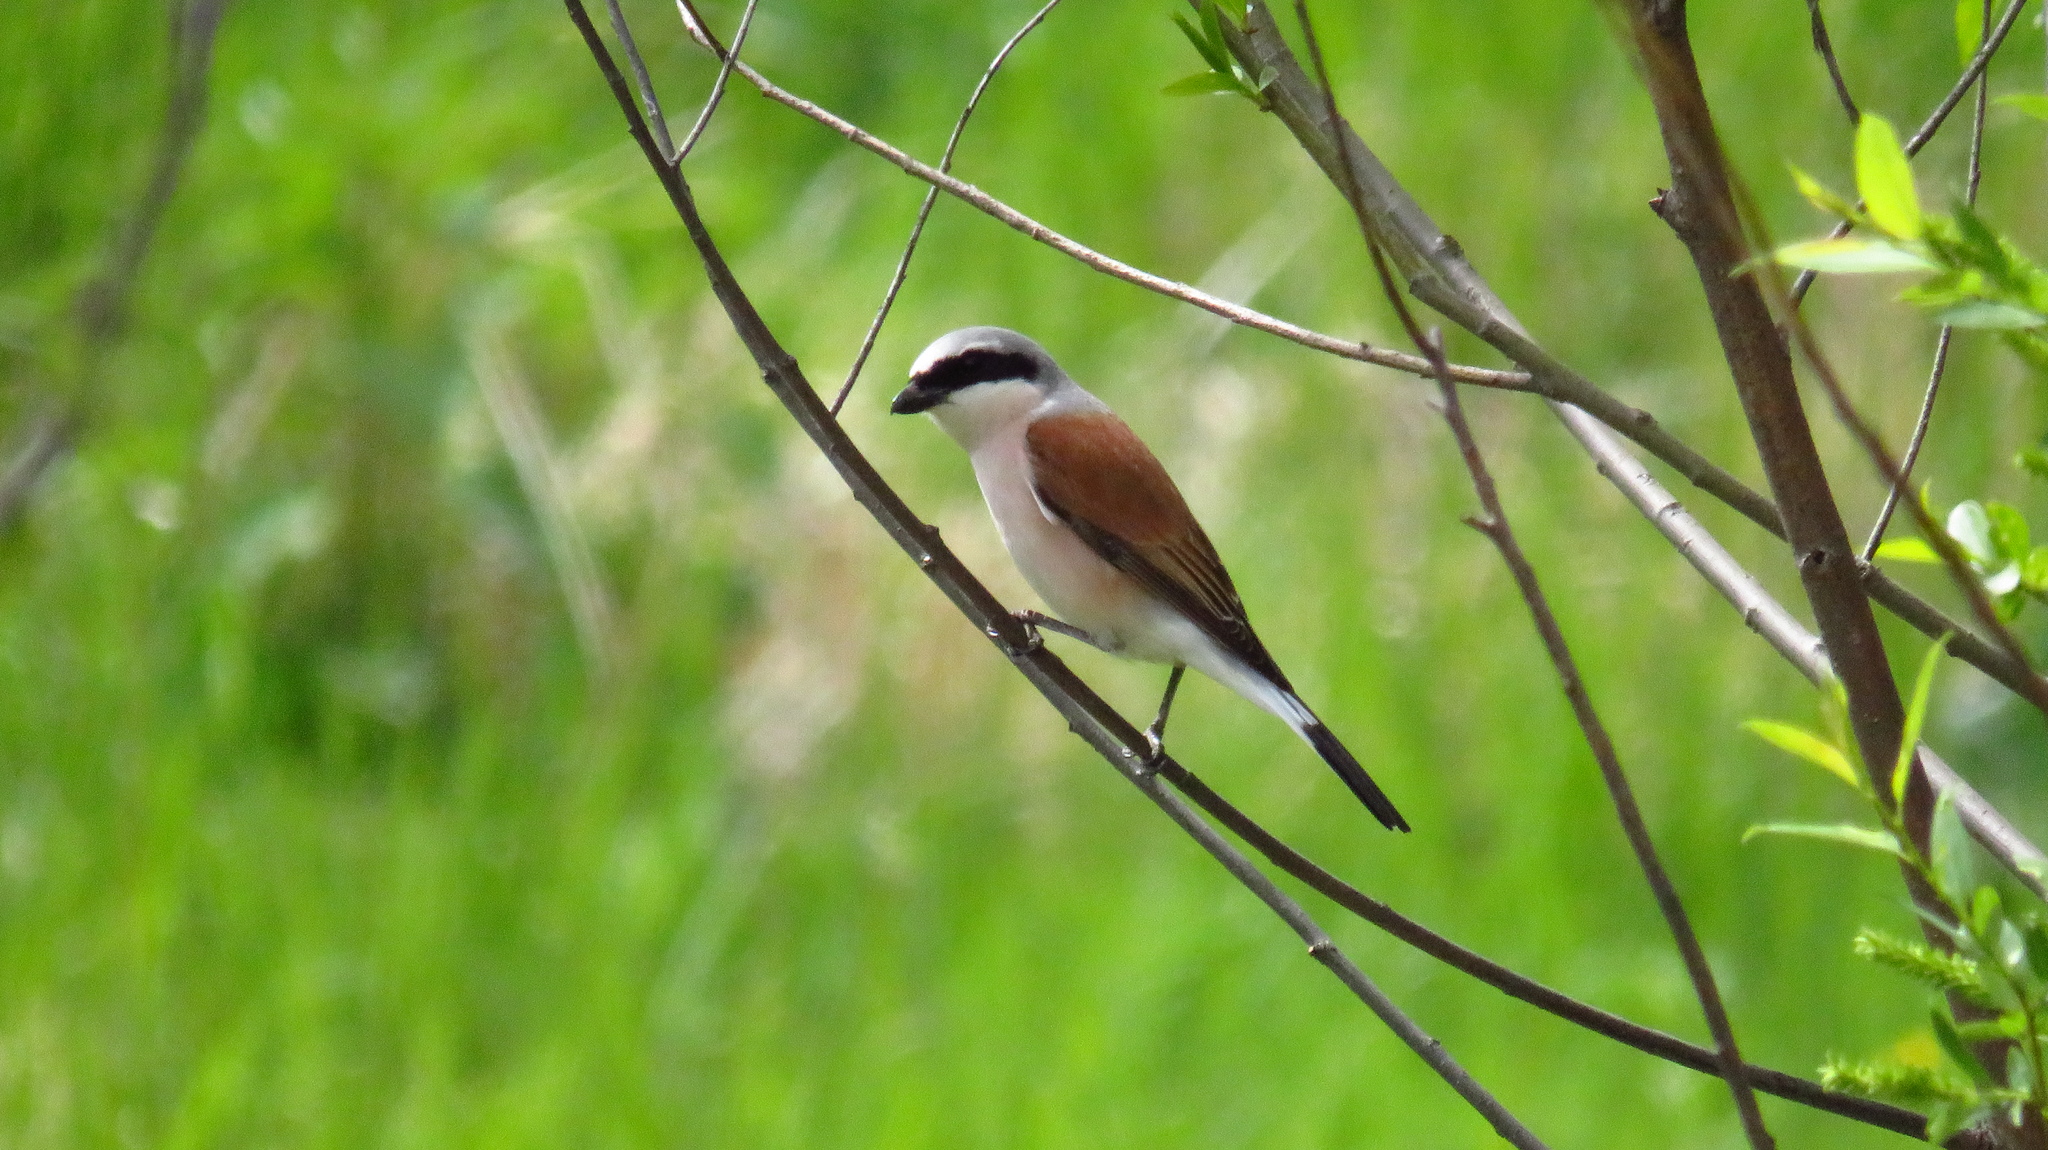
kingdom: Animalia
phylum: Chordata
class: Aves
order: Passeriformes
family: Laniidae
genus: Lanius
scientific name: Lanius collurio
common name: Red-backed shrike
